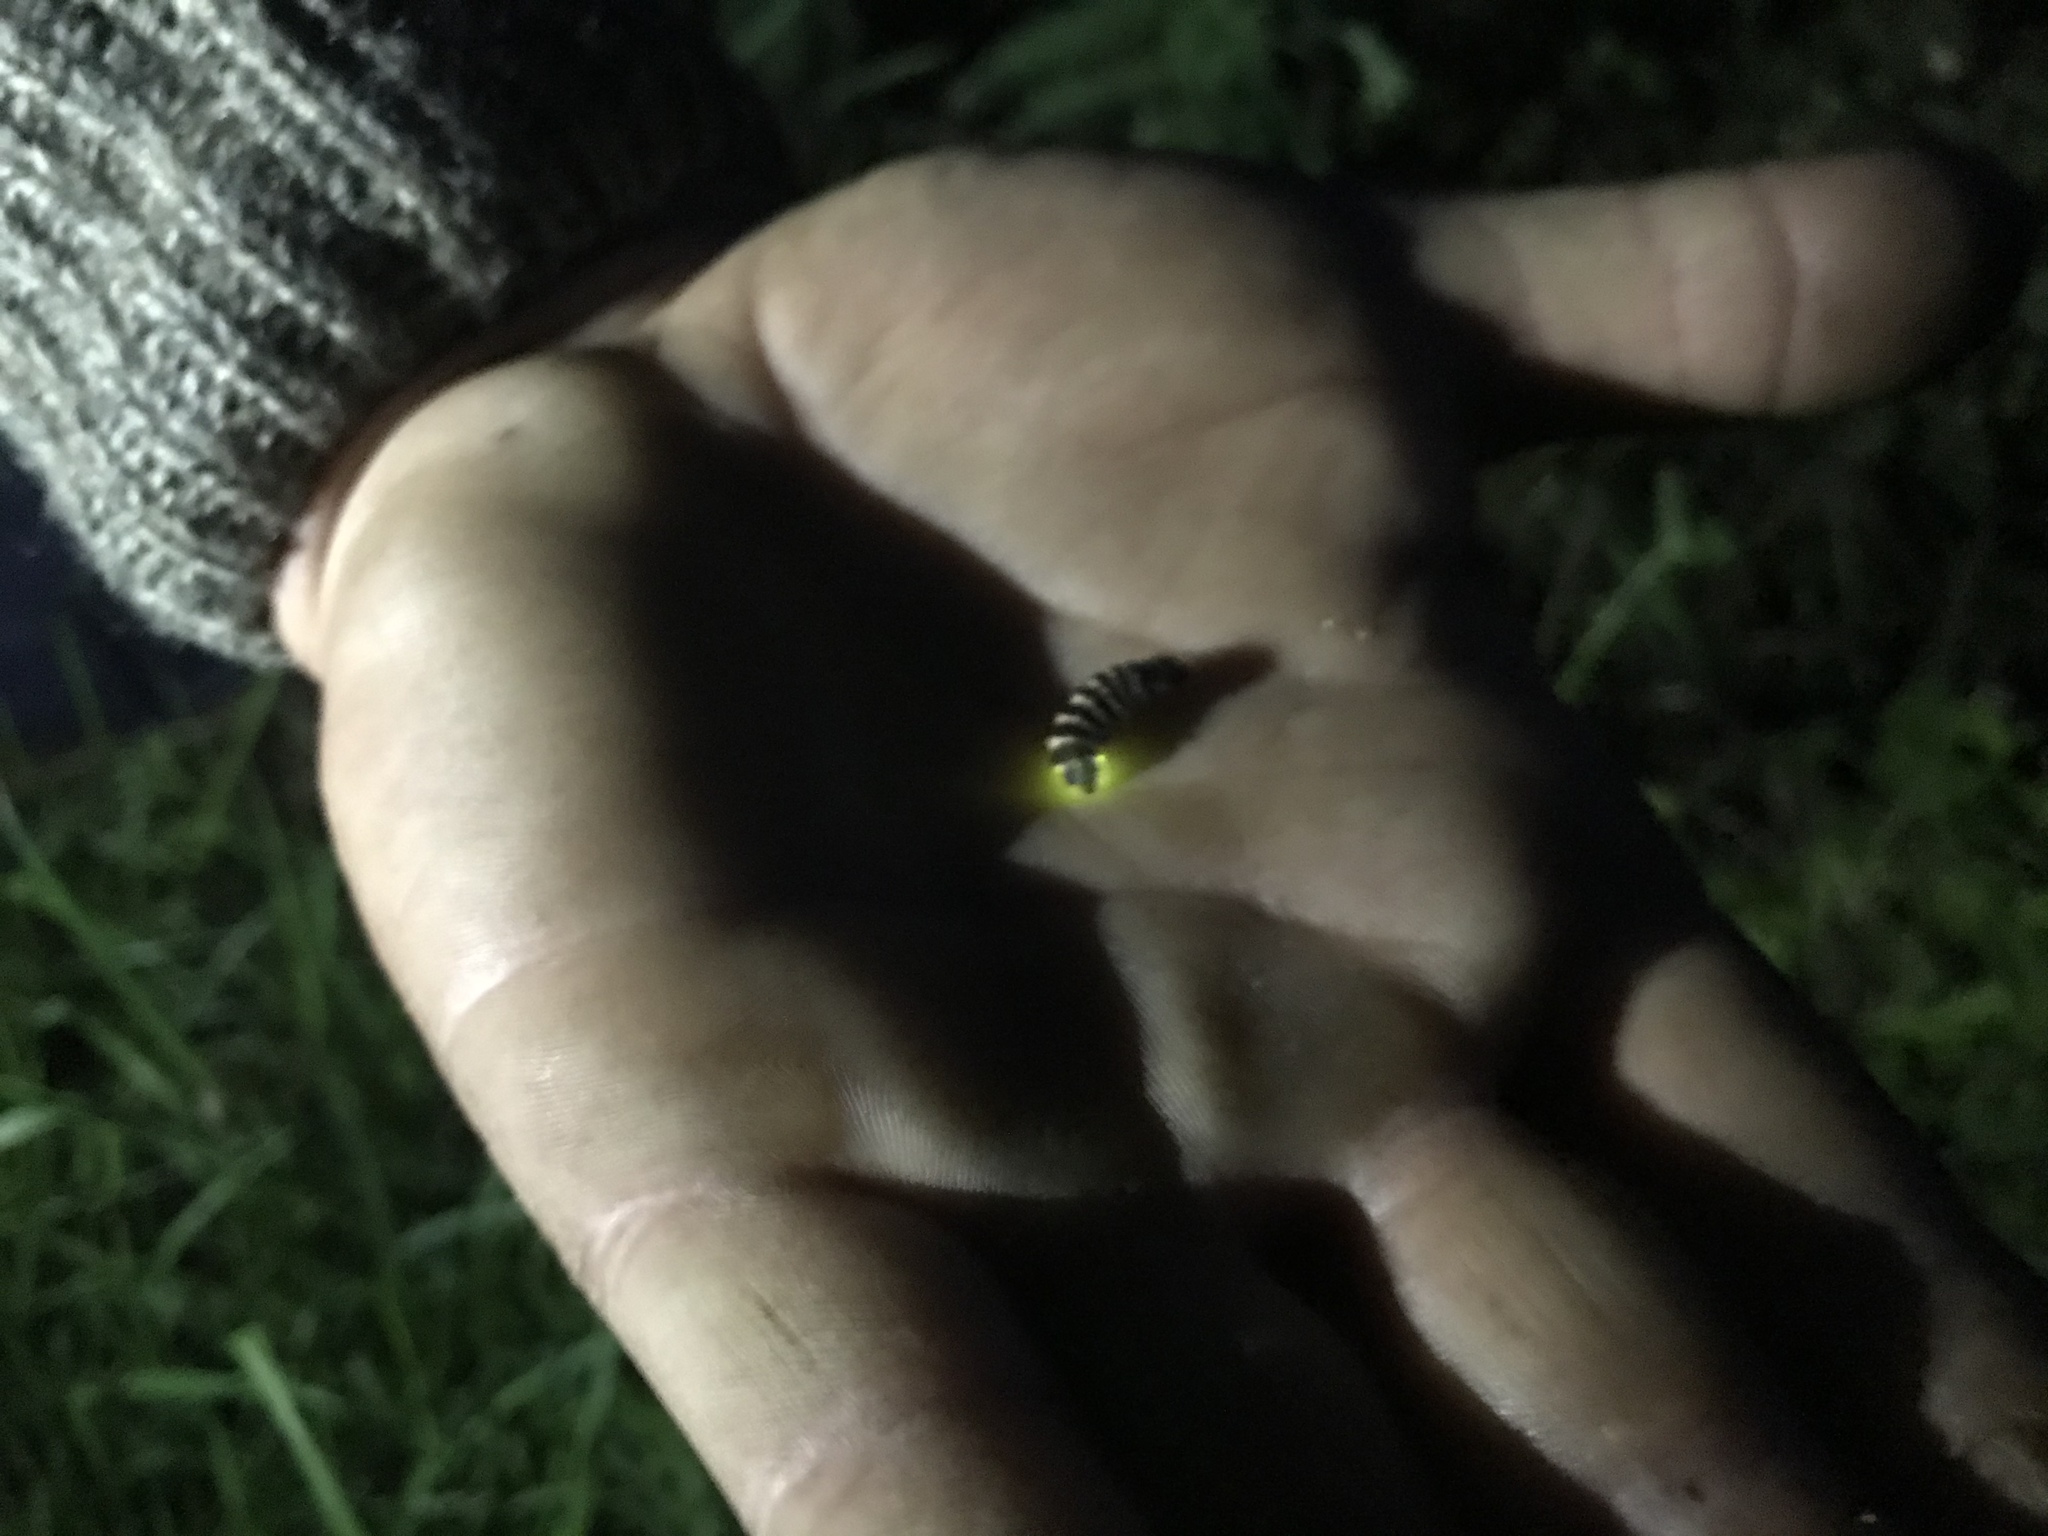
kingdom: Animalia
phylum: Arthropoda
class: Insecta
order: Coleoptera
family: Lampyridae
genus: Lampyris
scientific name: Lampyris noctiluca
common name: Glow-worm
